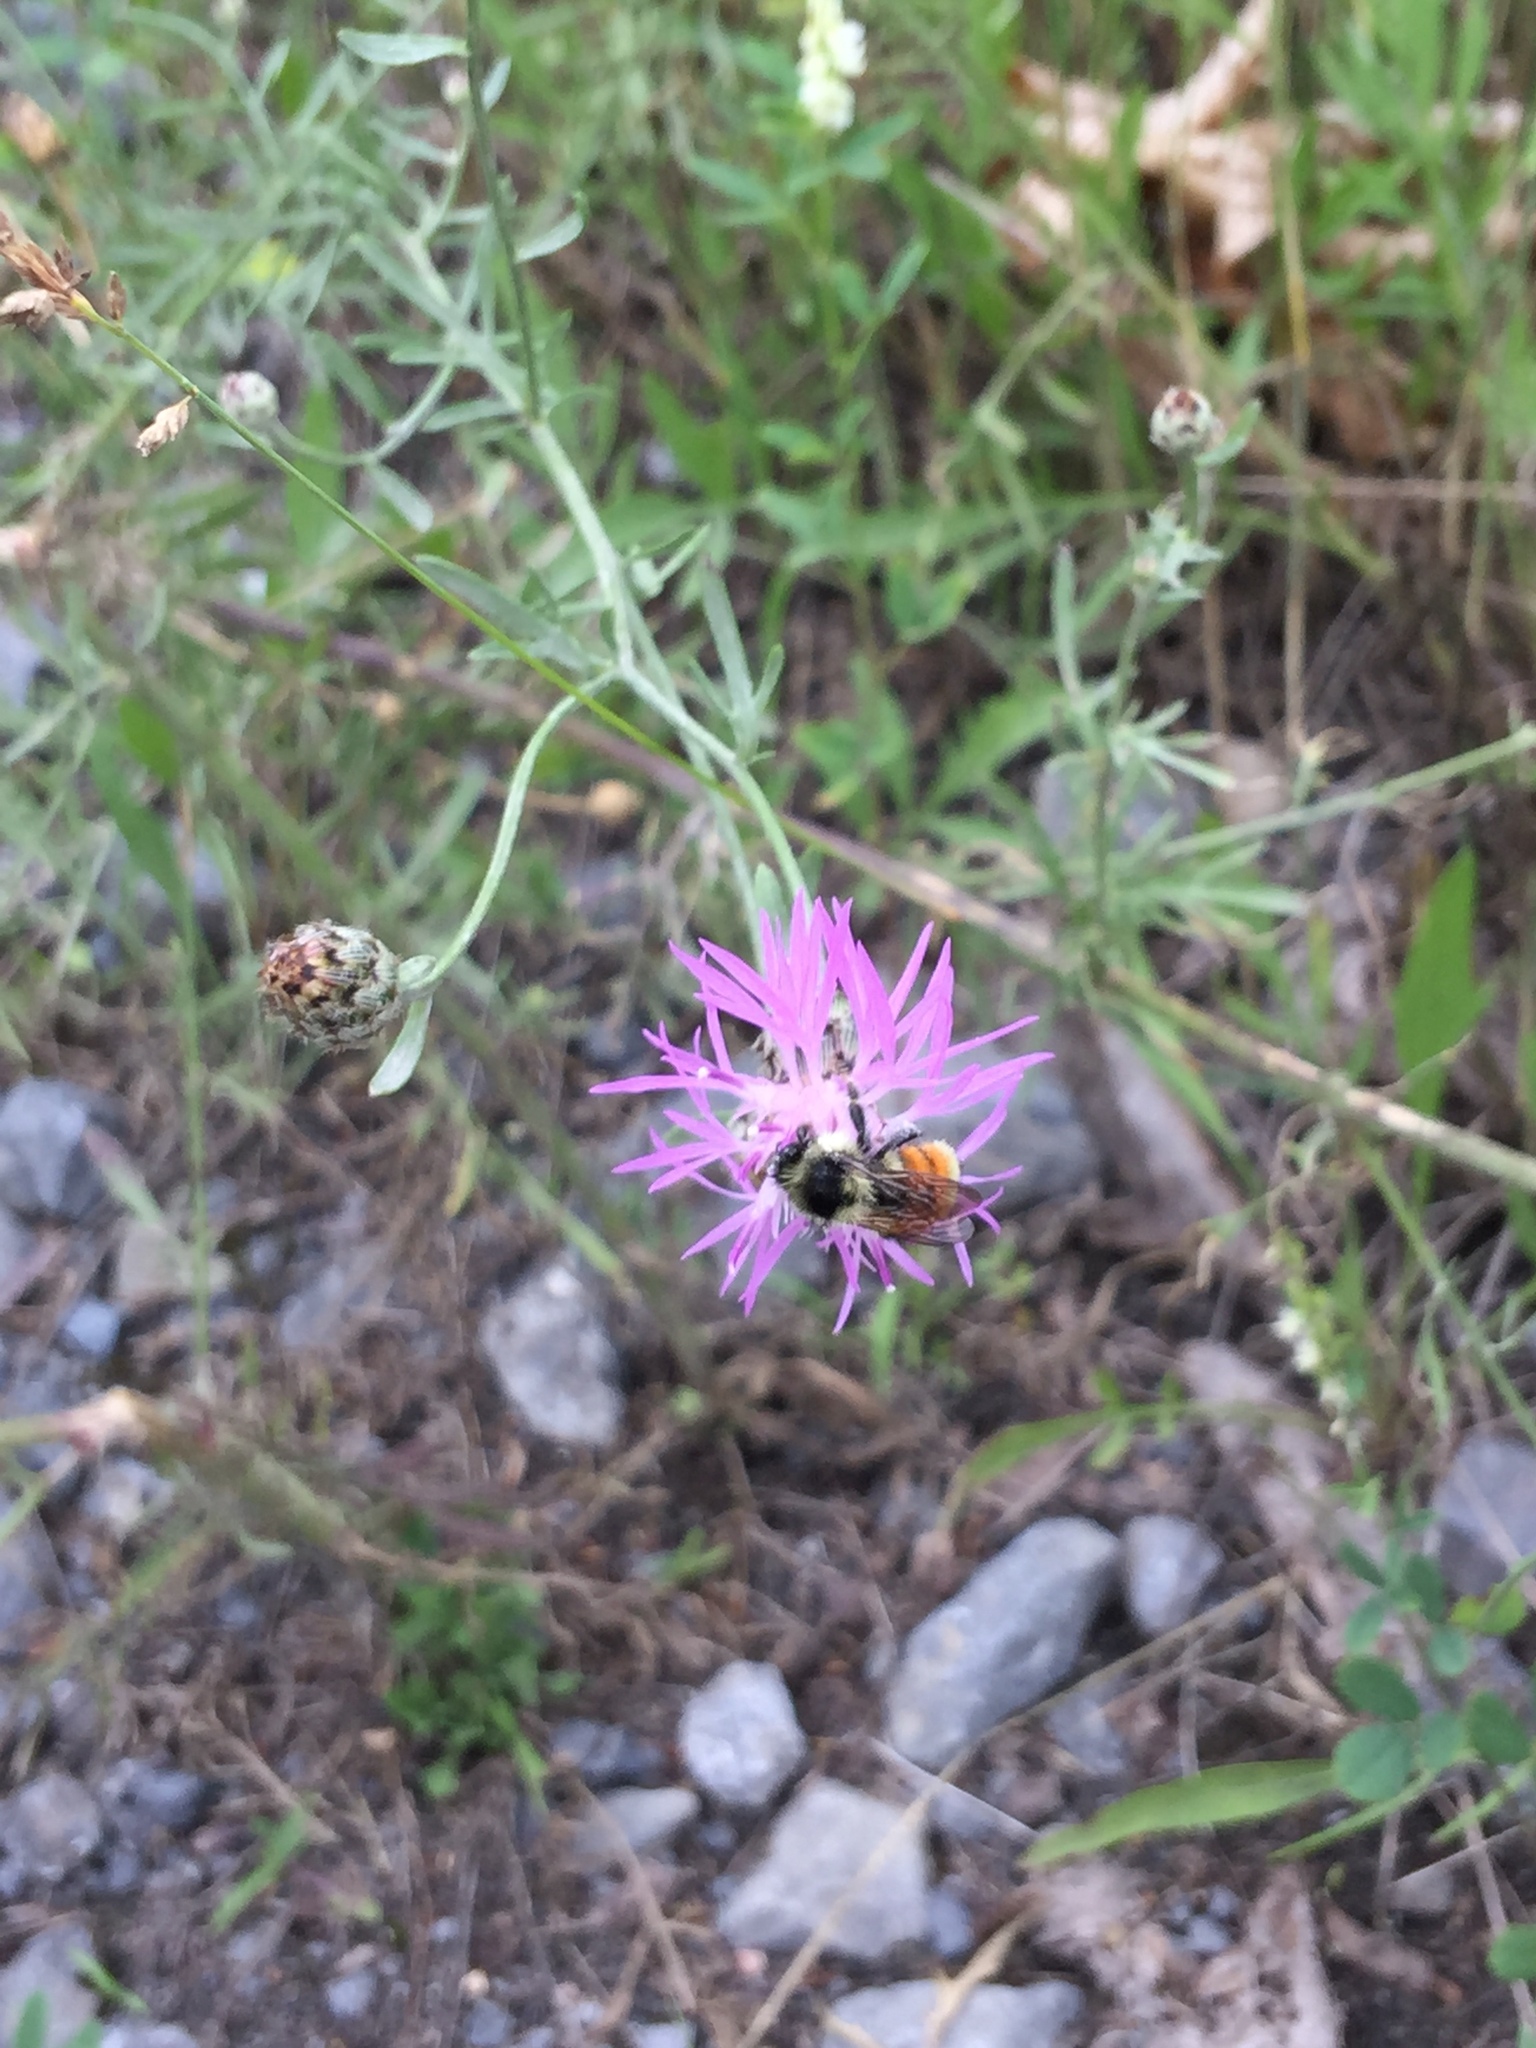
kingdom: Animalia
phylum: Arthropoda
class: Insecta
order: Hymenoptera
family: Apidae
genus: Bombus
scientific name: Bombus ternarius
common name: Tri-colored bumble bee
